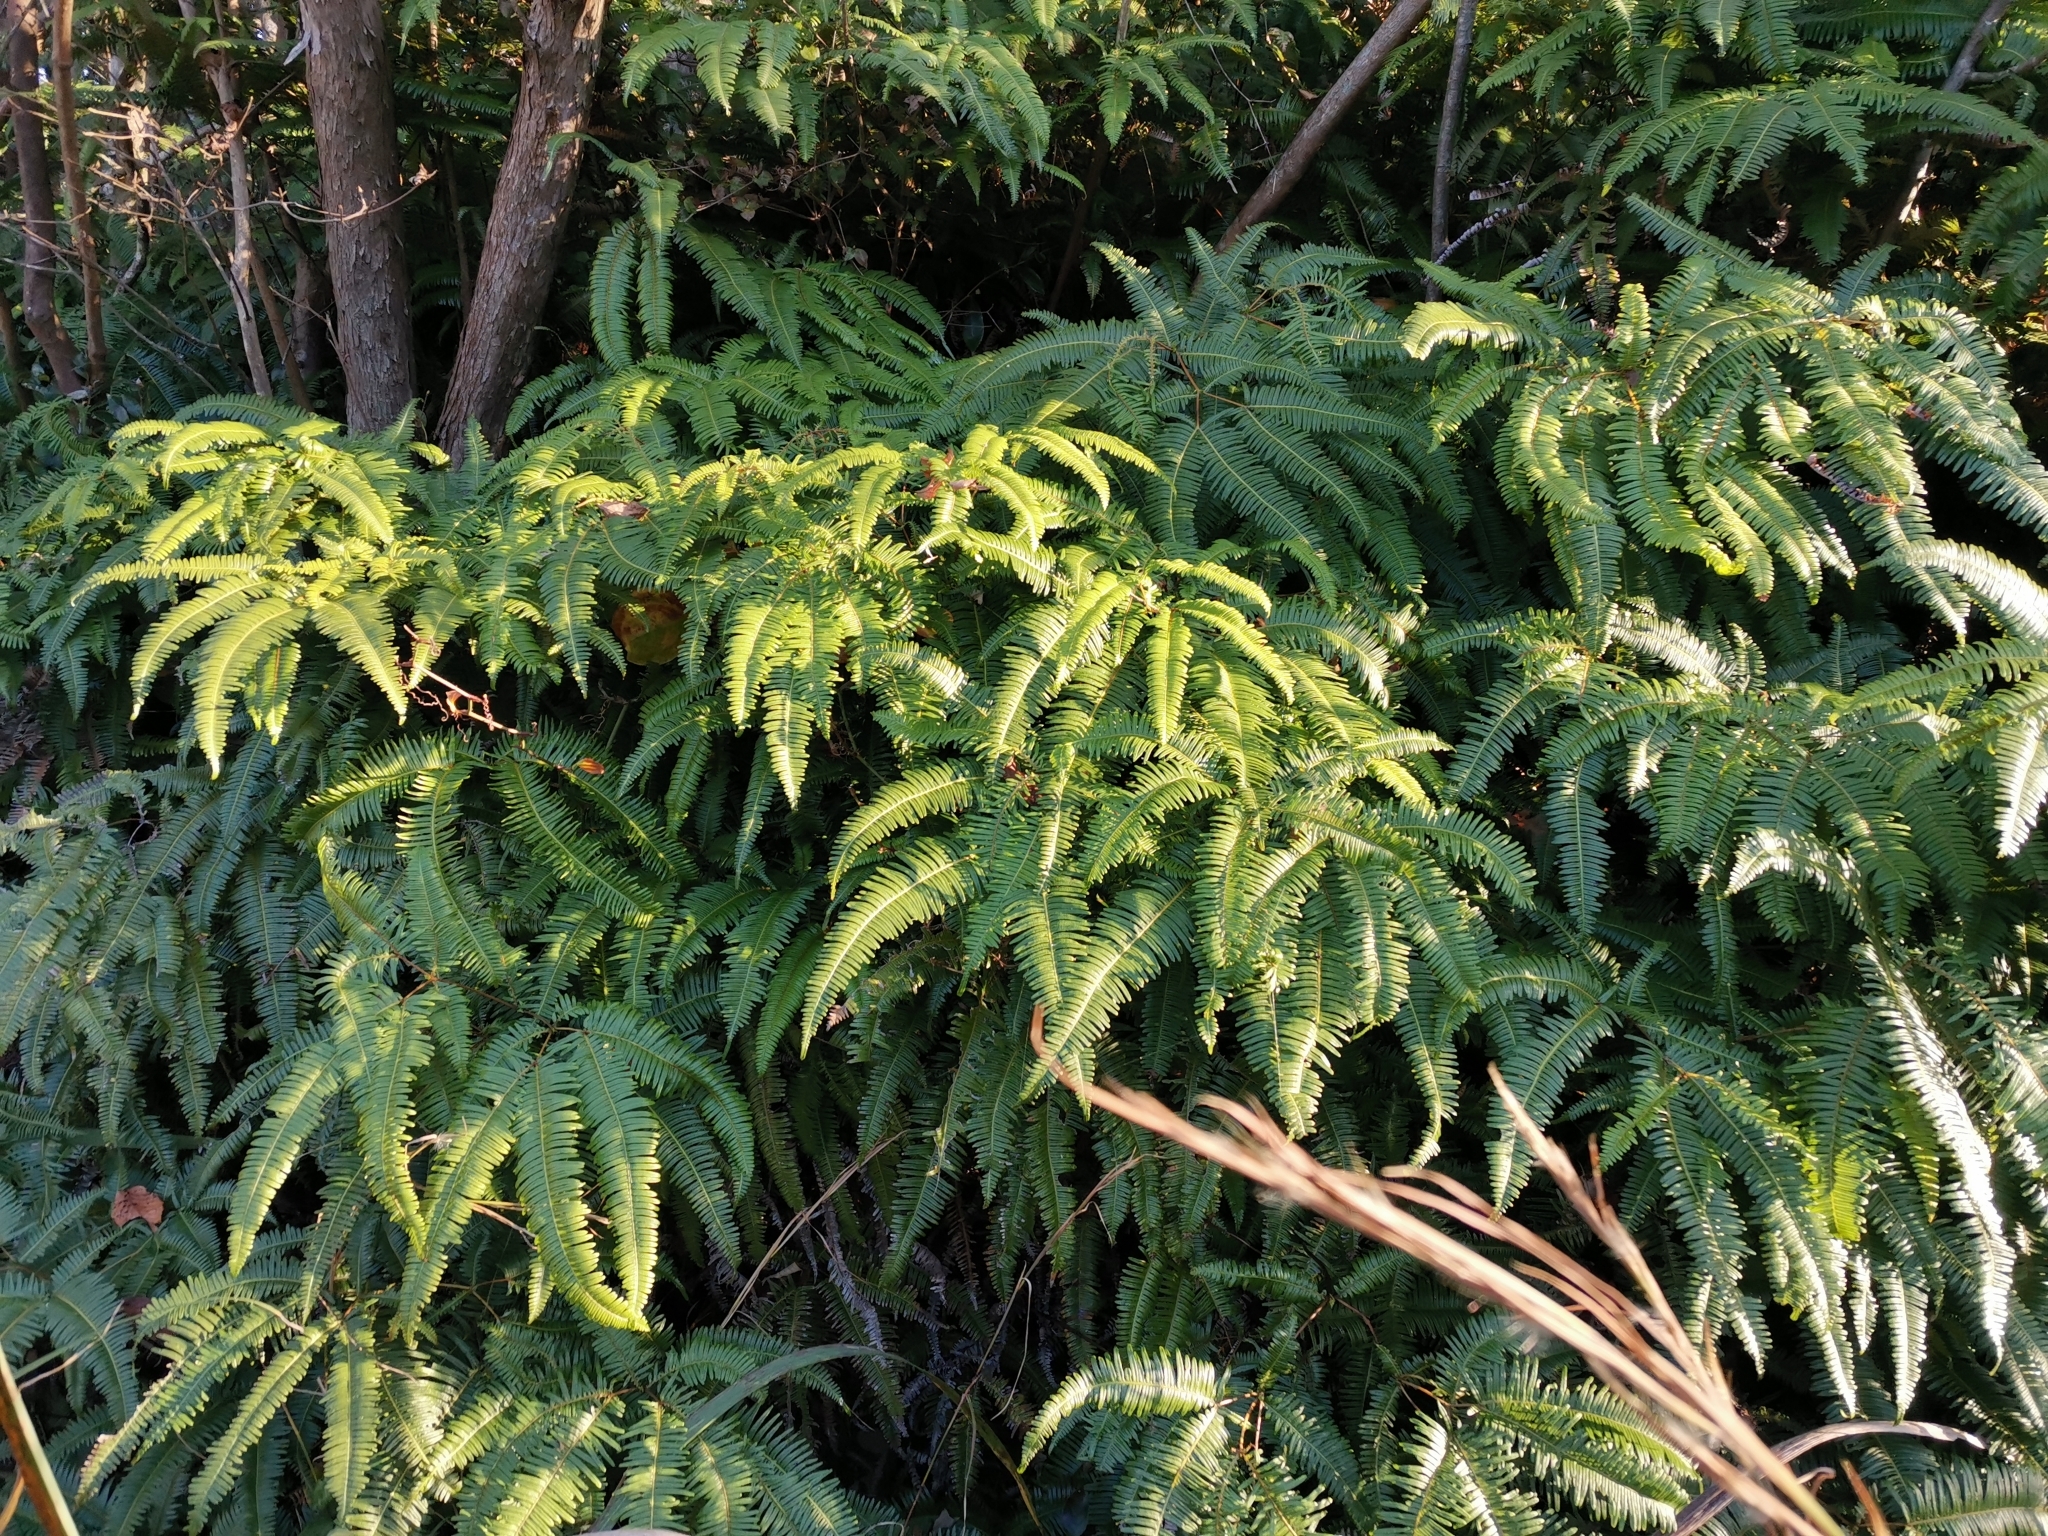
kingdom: Plantae
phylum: Tracheophyta
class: Polypodiopsida
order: Gleicheniales
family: Gleicheniaceae
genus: Dicranopteris
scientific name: Dicranopteris linearis
